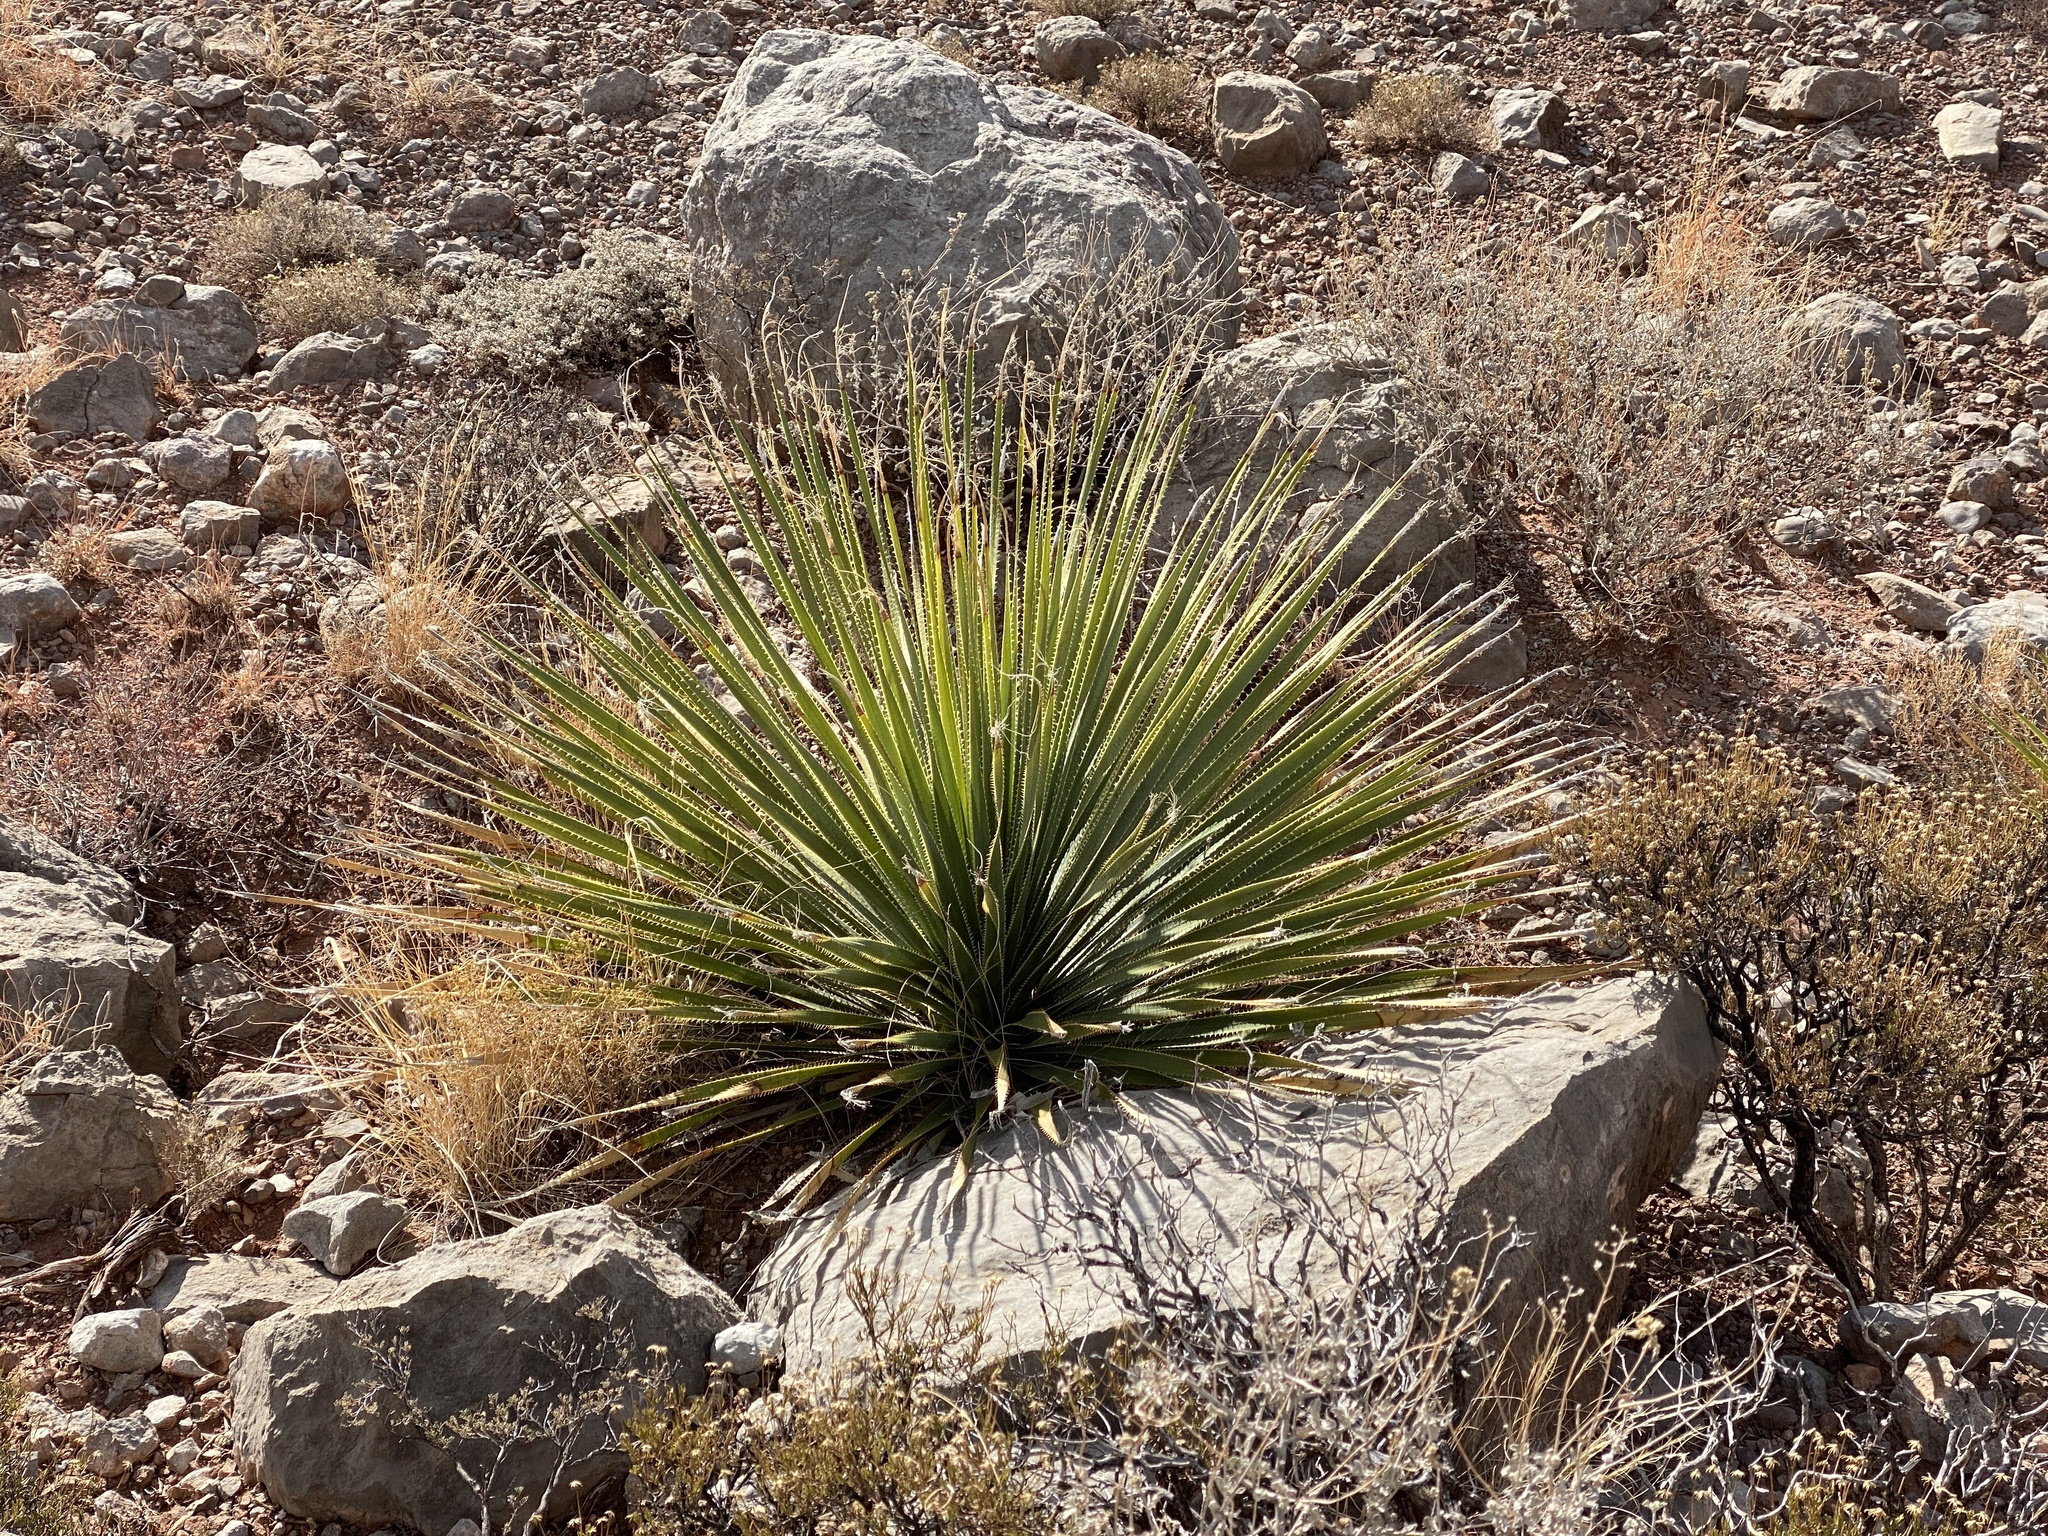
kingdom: Plantae
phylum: Tracheophyta
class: Liliopsida
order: Asparagales
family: Asparagaceae
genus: Dasylirion
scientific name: Dasylirion wheeleri
